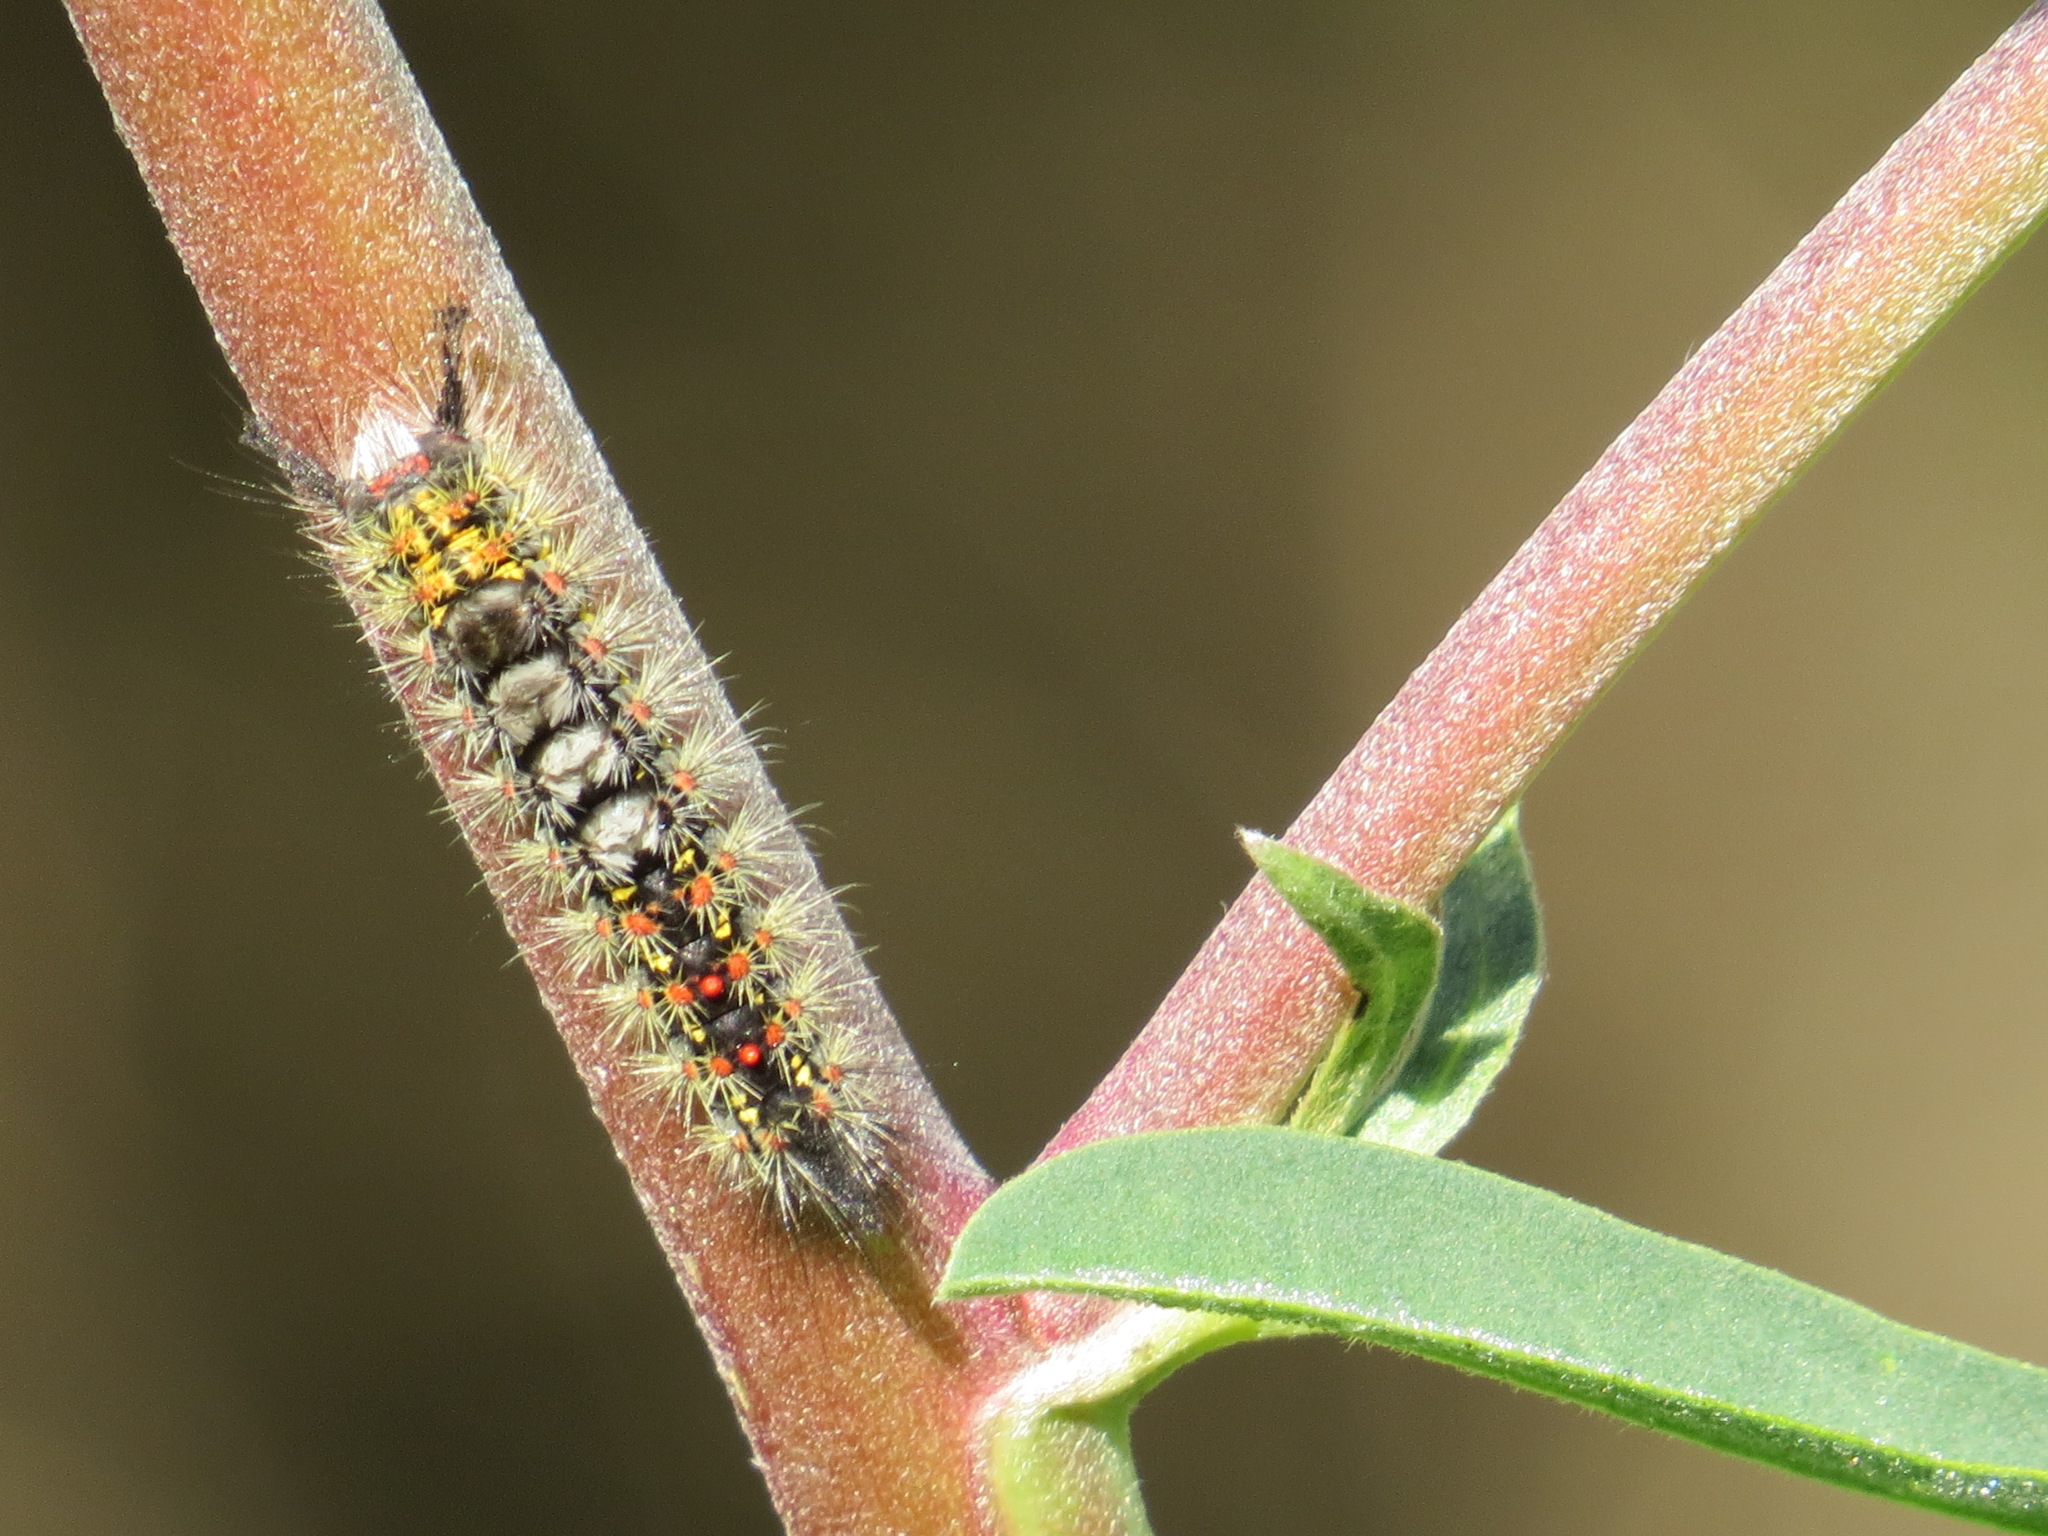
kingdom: Animalia
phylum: Arthropoda
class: Insecta
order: Lepidoptera
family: Erebidae
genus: Orgyia
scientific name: Orgyia vetusta
